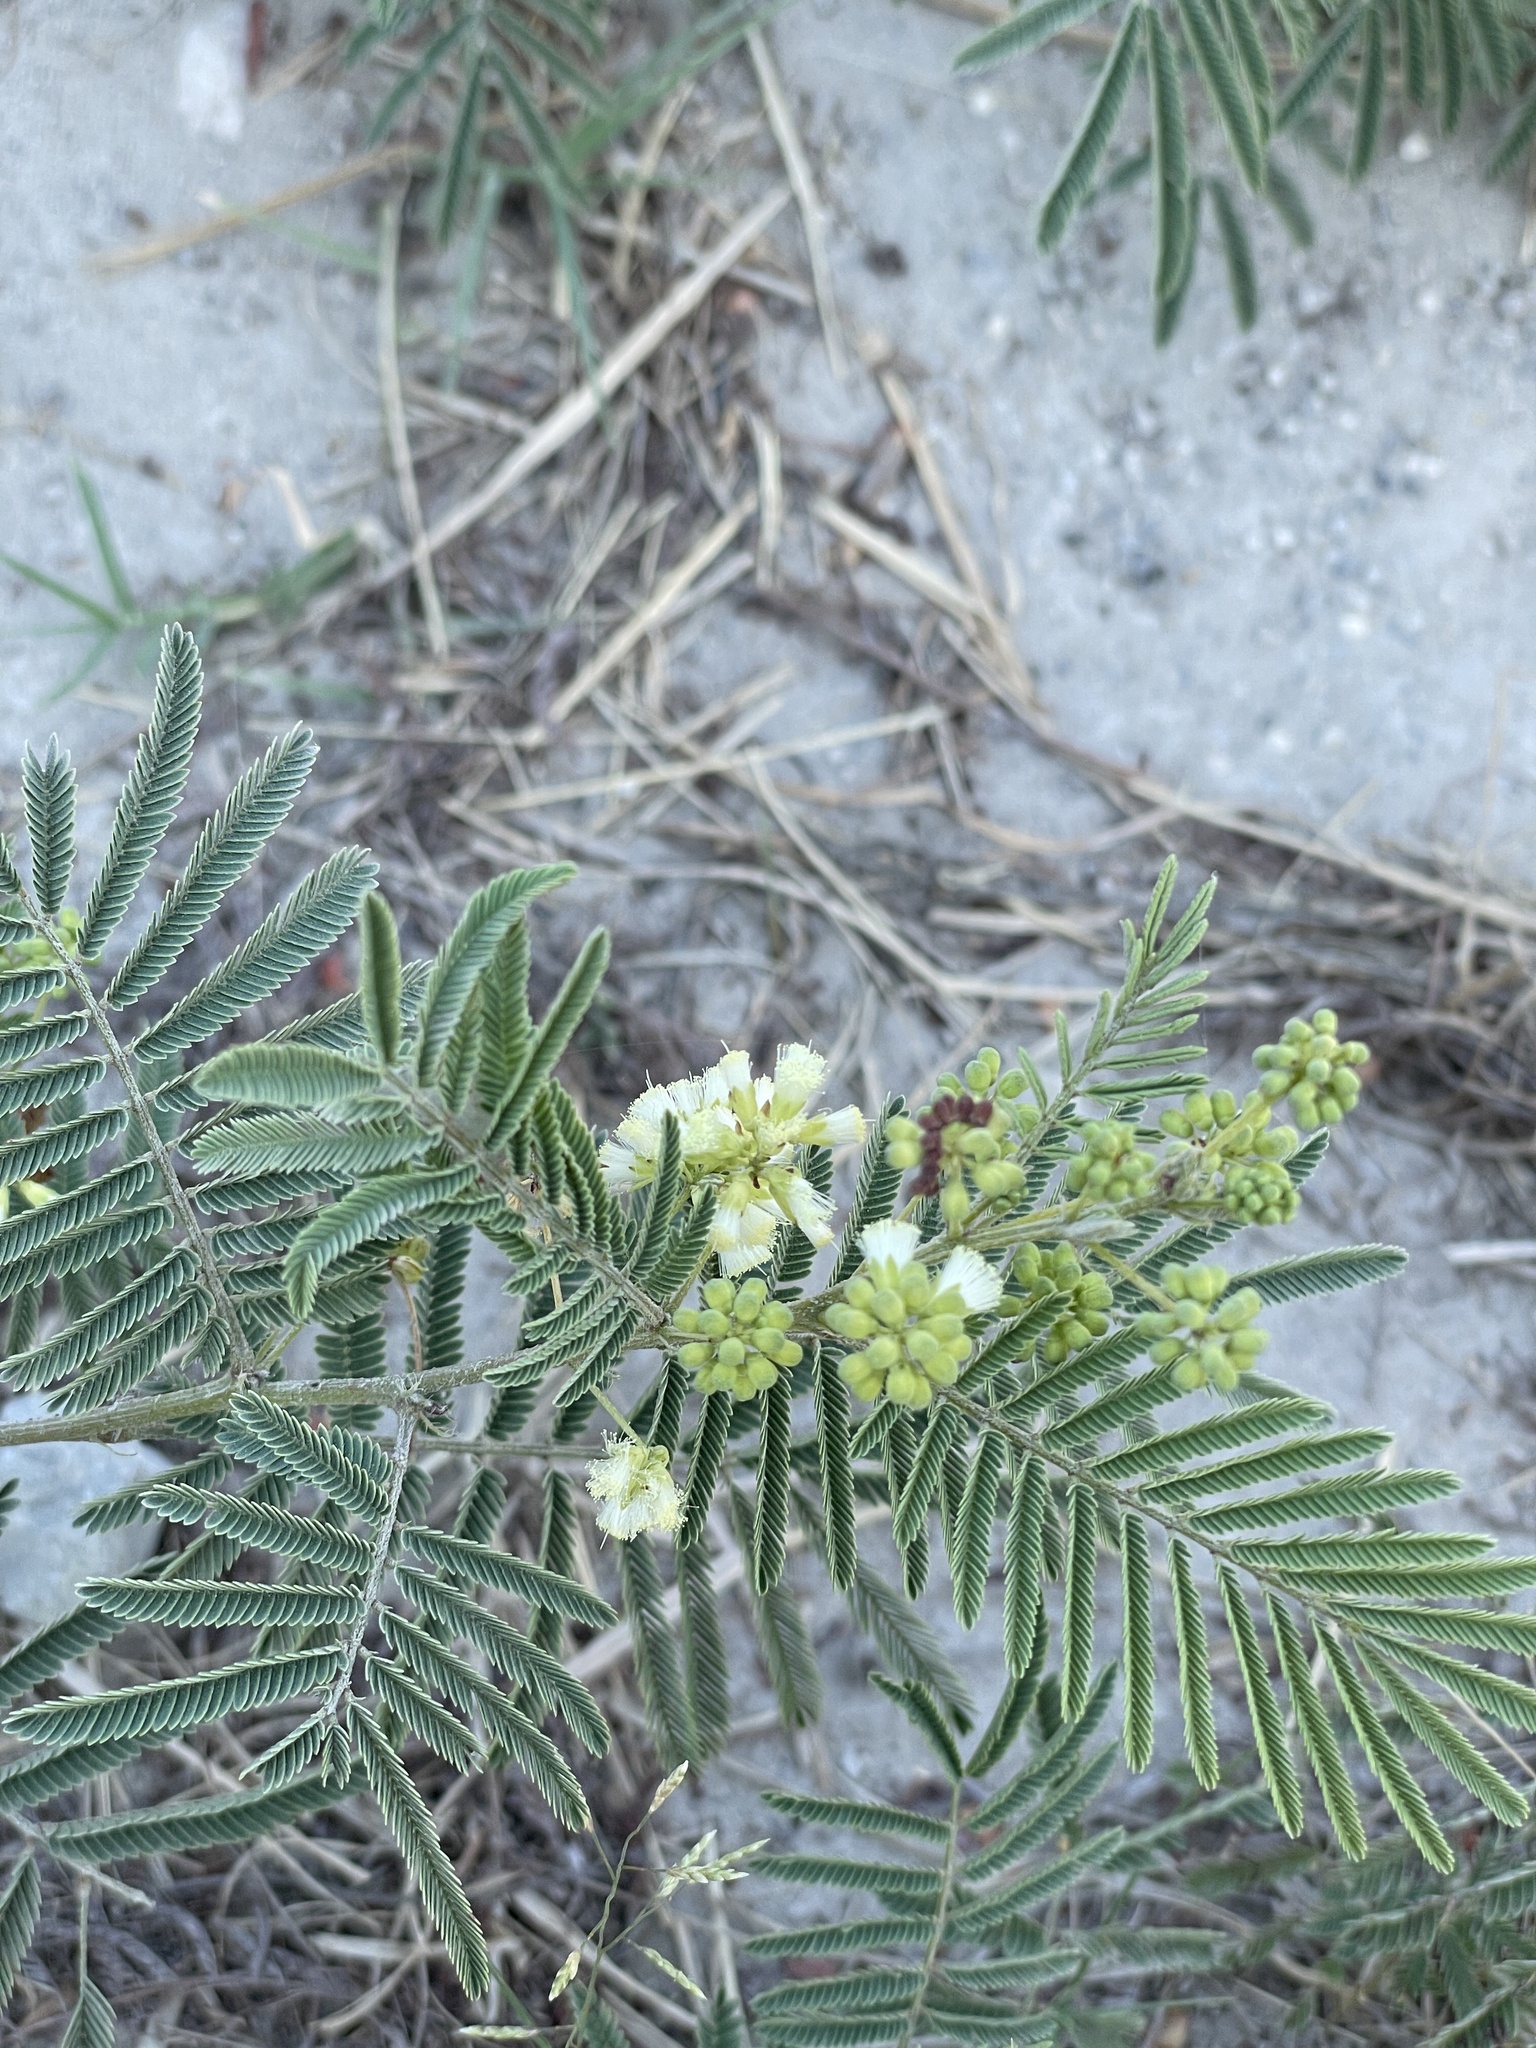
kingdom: Plantae
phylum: Tracheophyta
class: Magnoliopsida
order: Fabales
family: Fabaceae
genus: Acaciella
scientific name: Acaciella angustissima
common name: Prairie acacia
